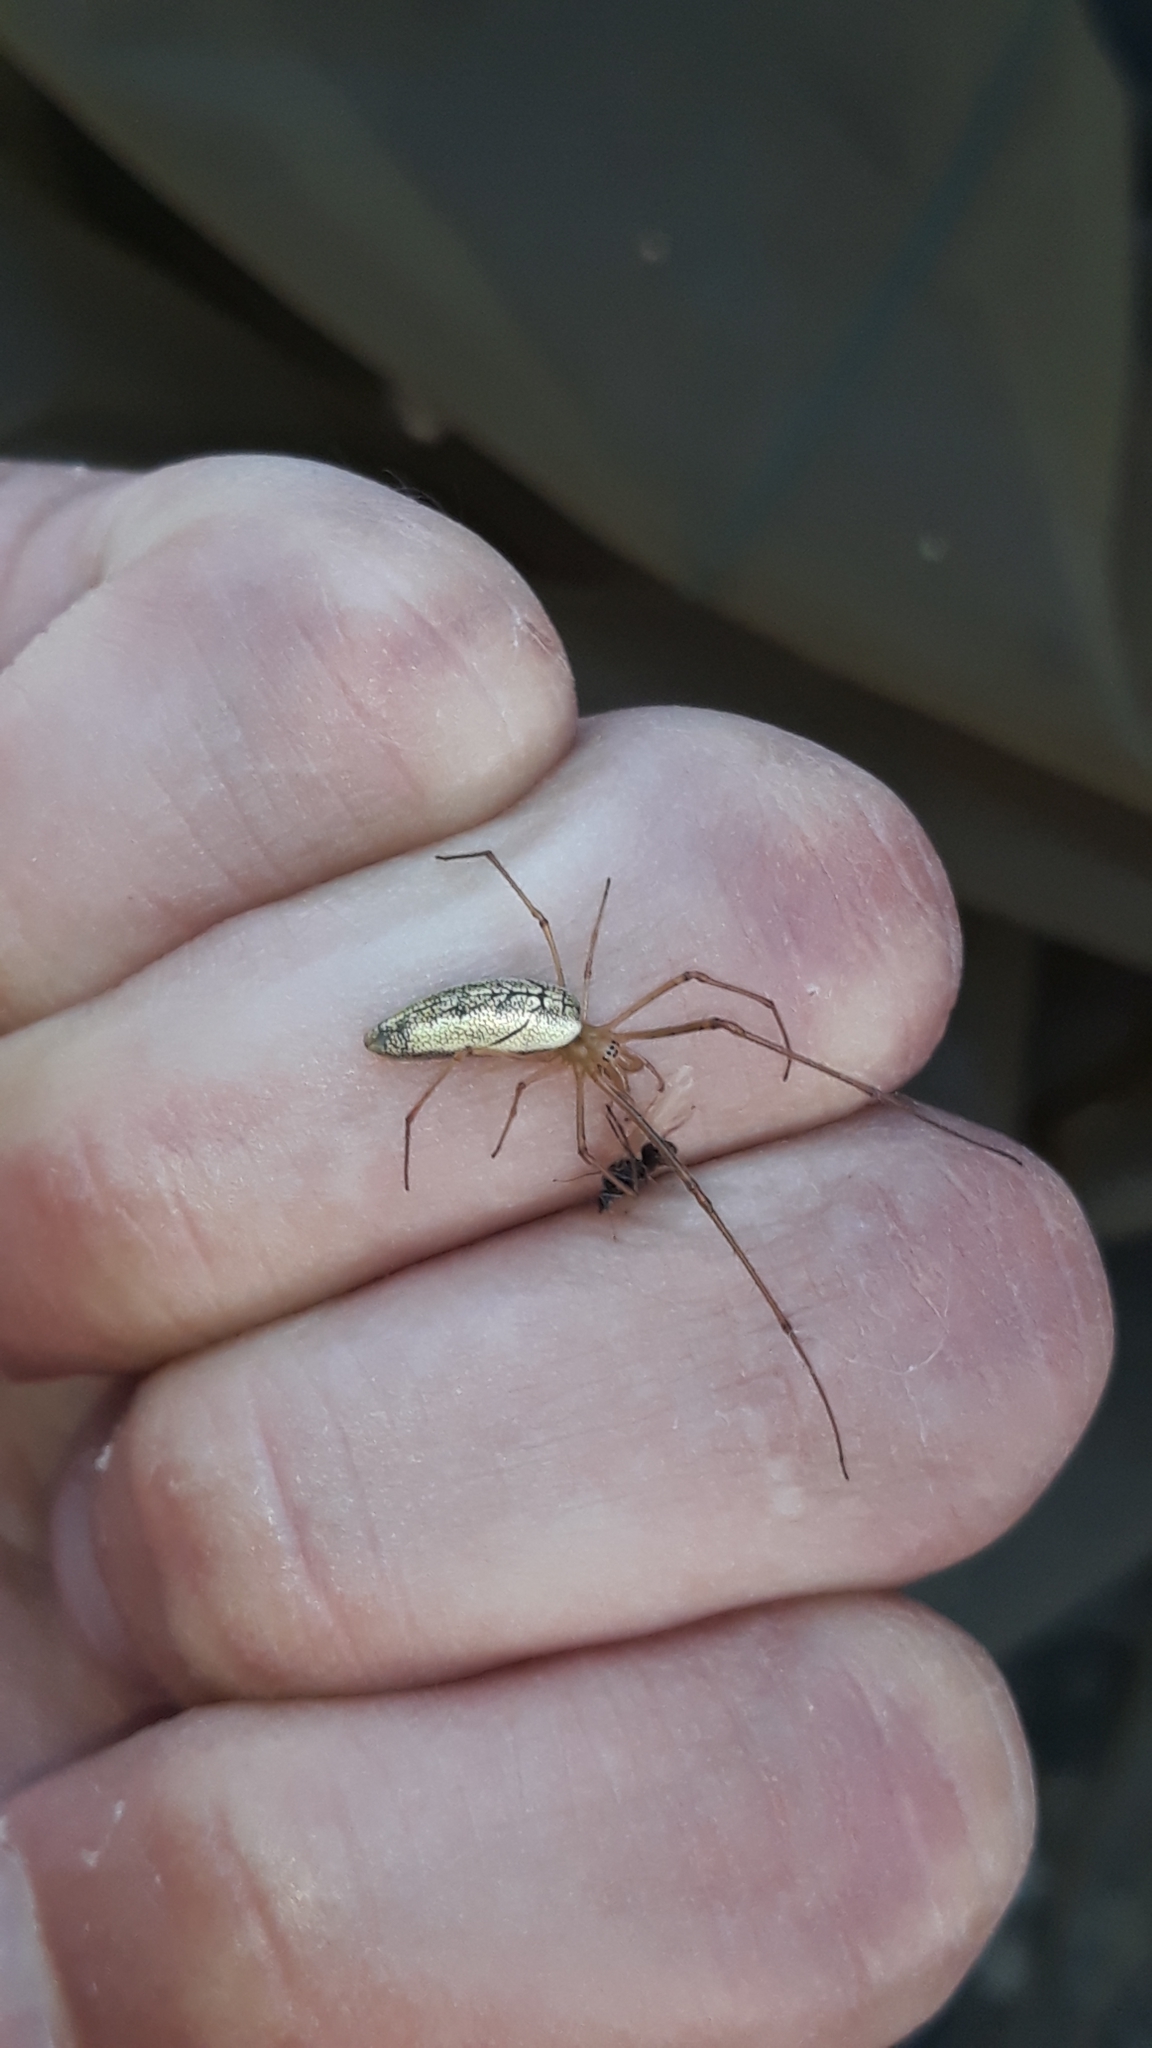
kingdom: Animalia
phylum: Arthropoda
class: Arachnida
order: Araneae
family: Tetragnathidae
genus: Tetragnatha
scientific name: Tetragnatha extensa
